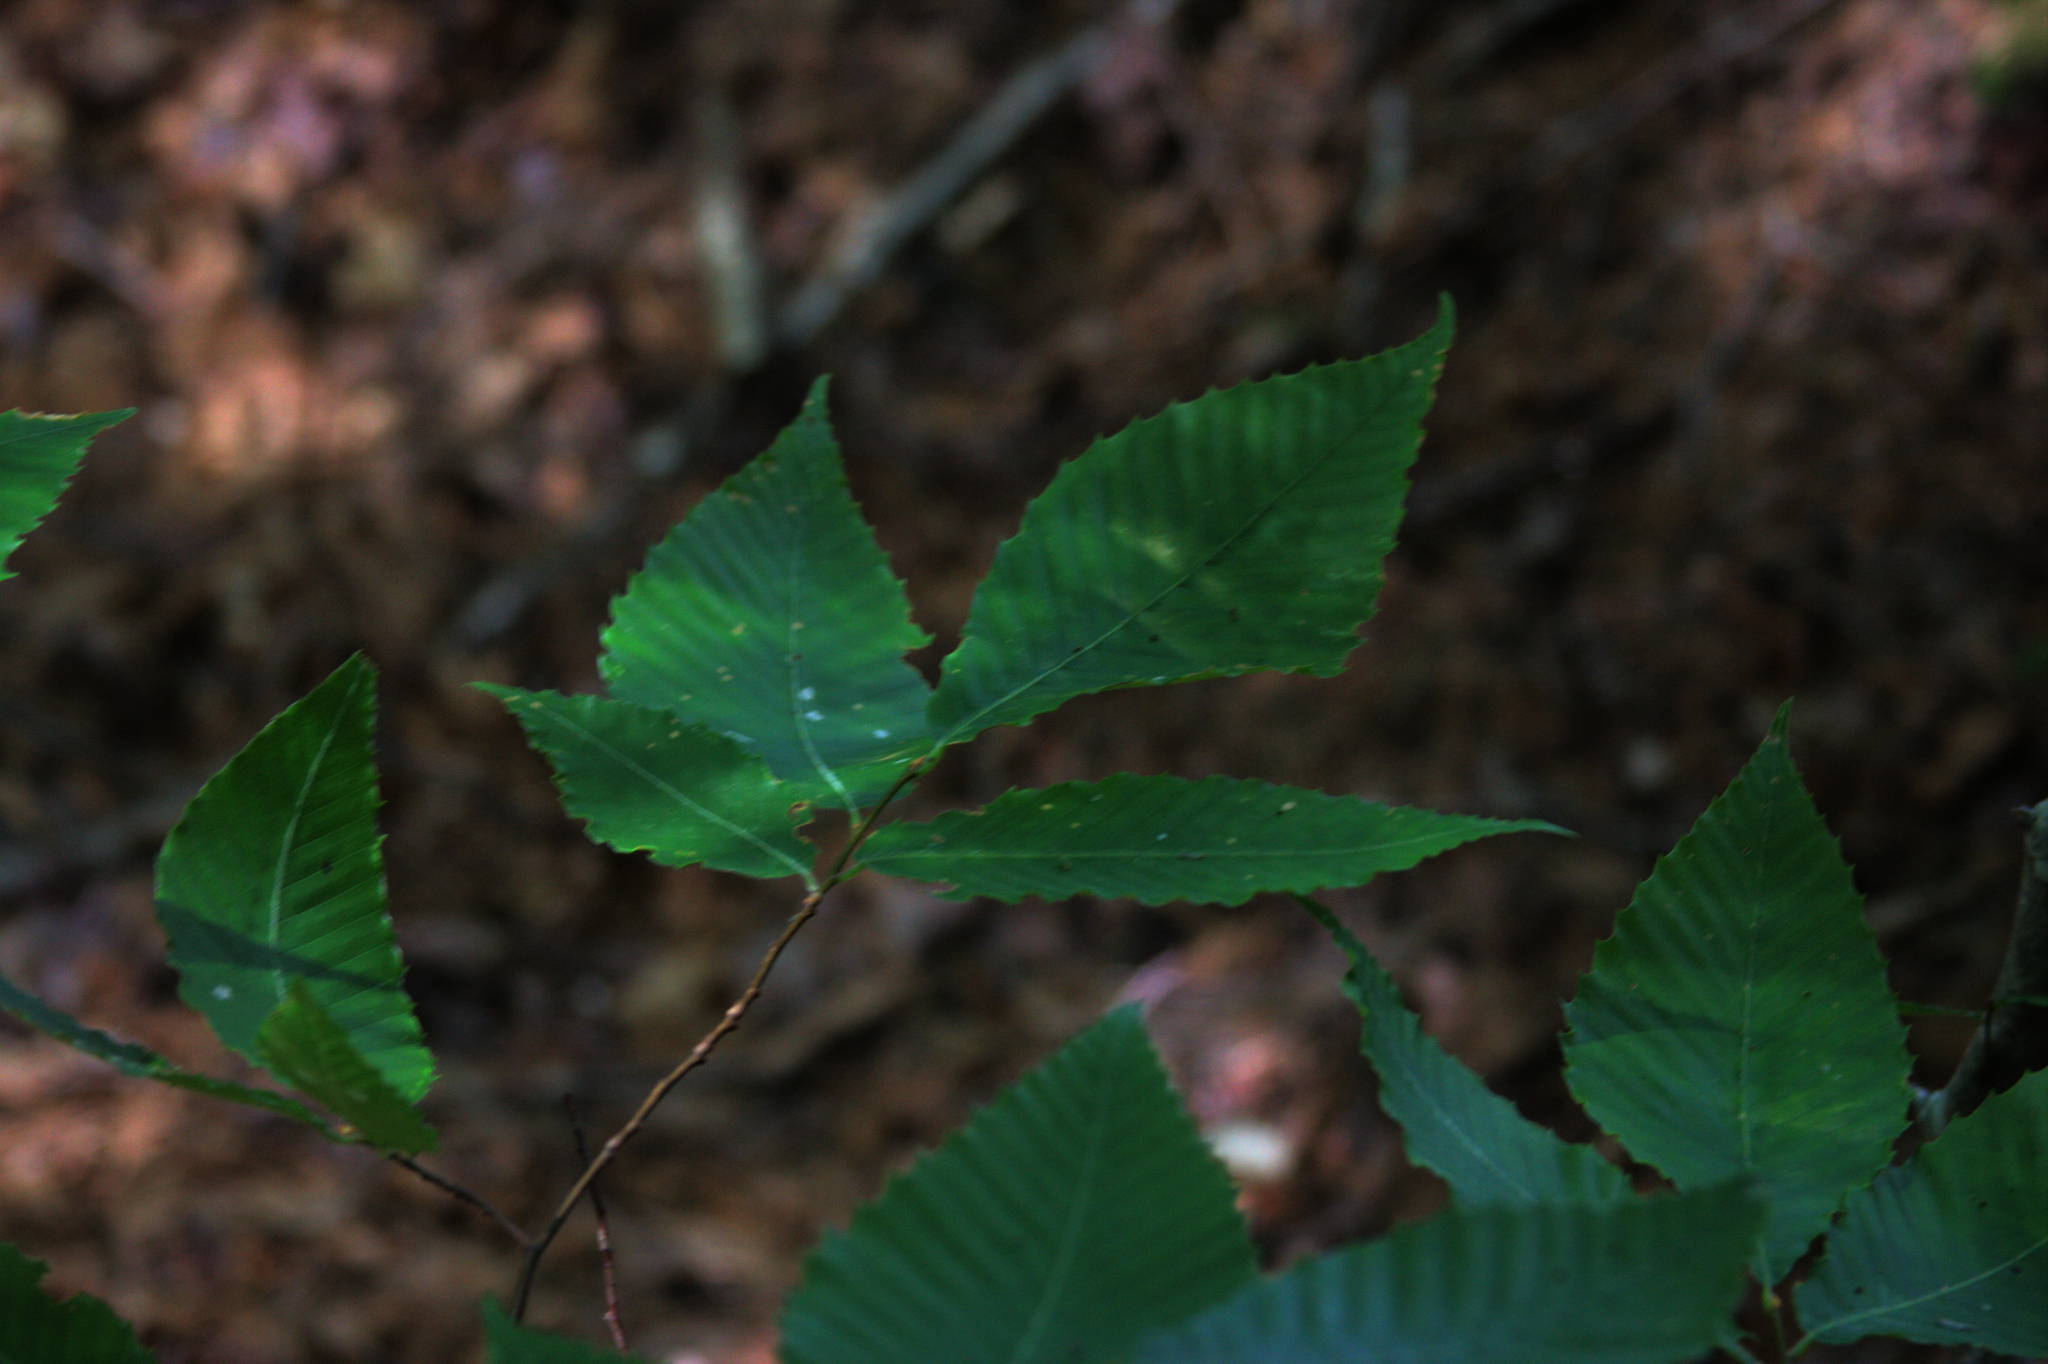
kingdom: Plantae
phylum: Tracheophyta
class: Magnoliopsida
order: Fagales
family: Fagaceae
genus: Fagus
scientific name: Fagus grandifolia
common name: American beech
